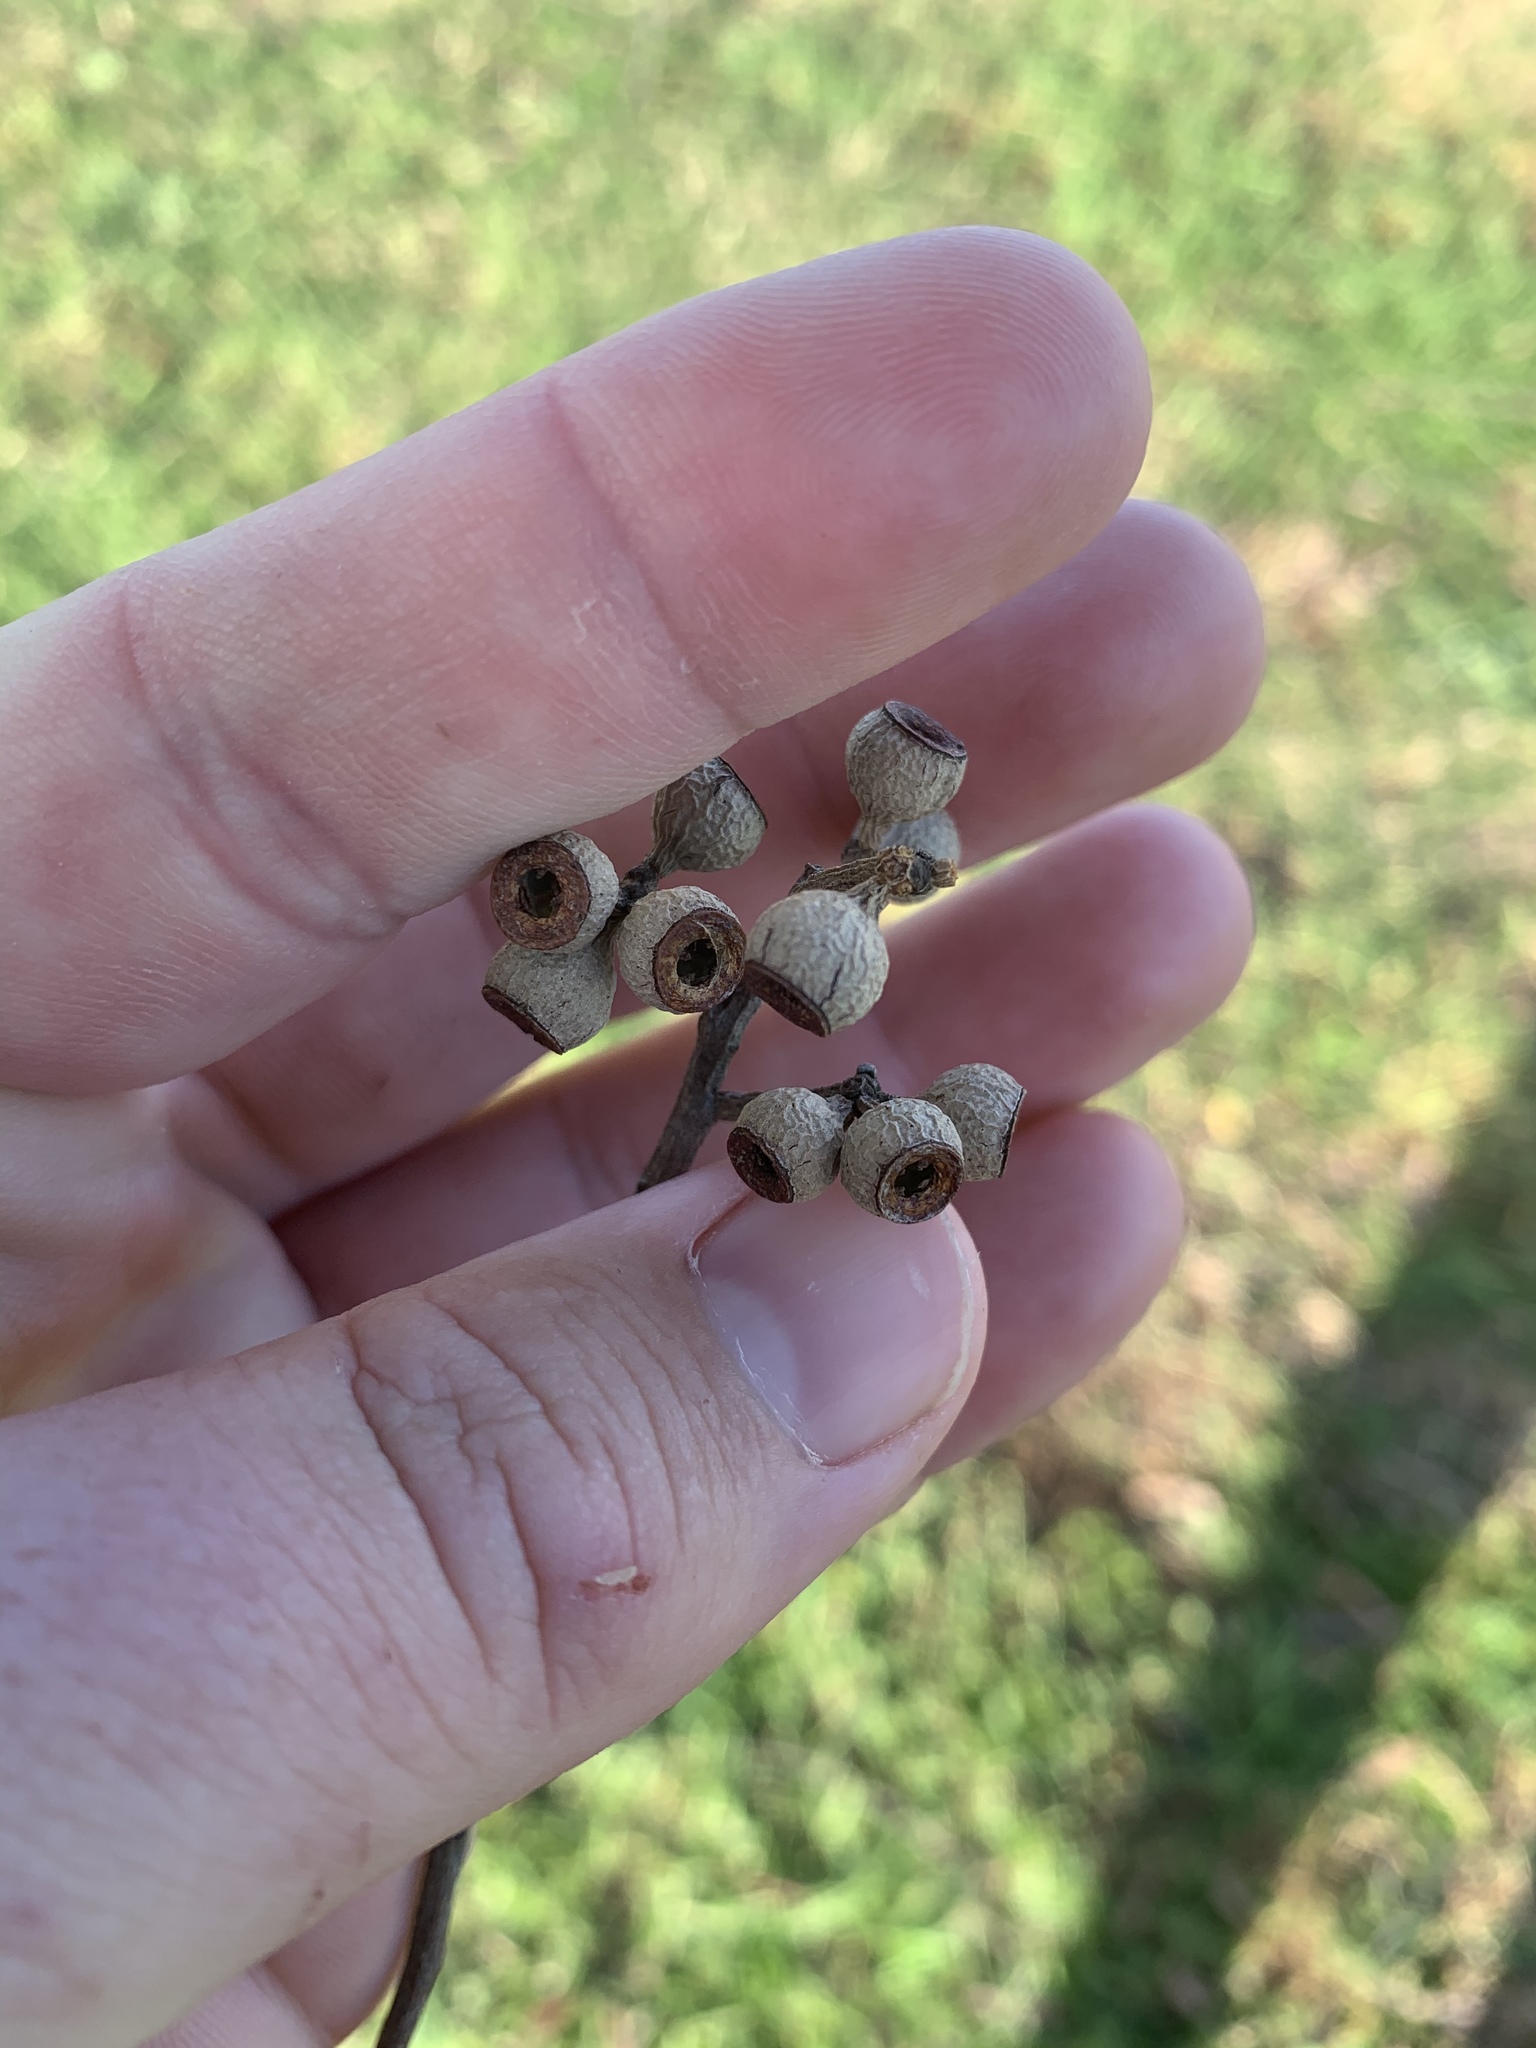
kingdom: Plantae
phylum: Tracheophyta
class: Magnoliopsida
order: Myrtales
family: Myrtaceae
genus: Eucalyptus
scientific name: Eucalyptus eugenioides
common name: Narrow-leaved-stringybark
